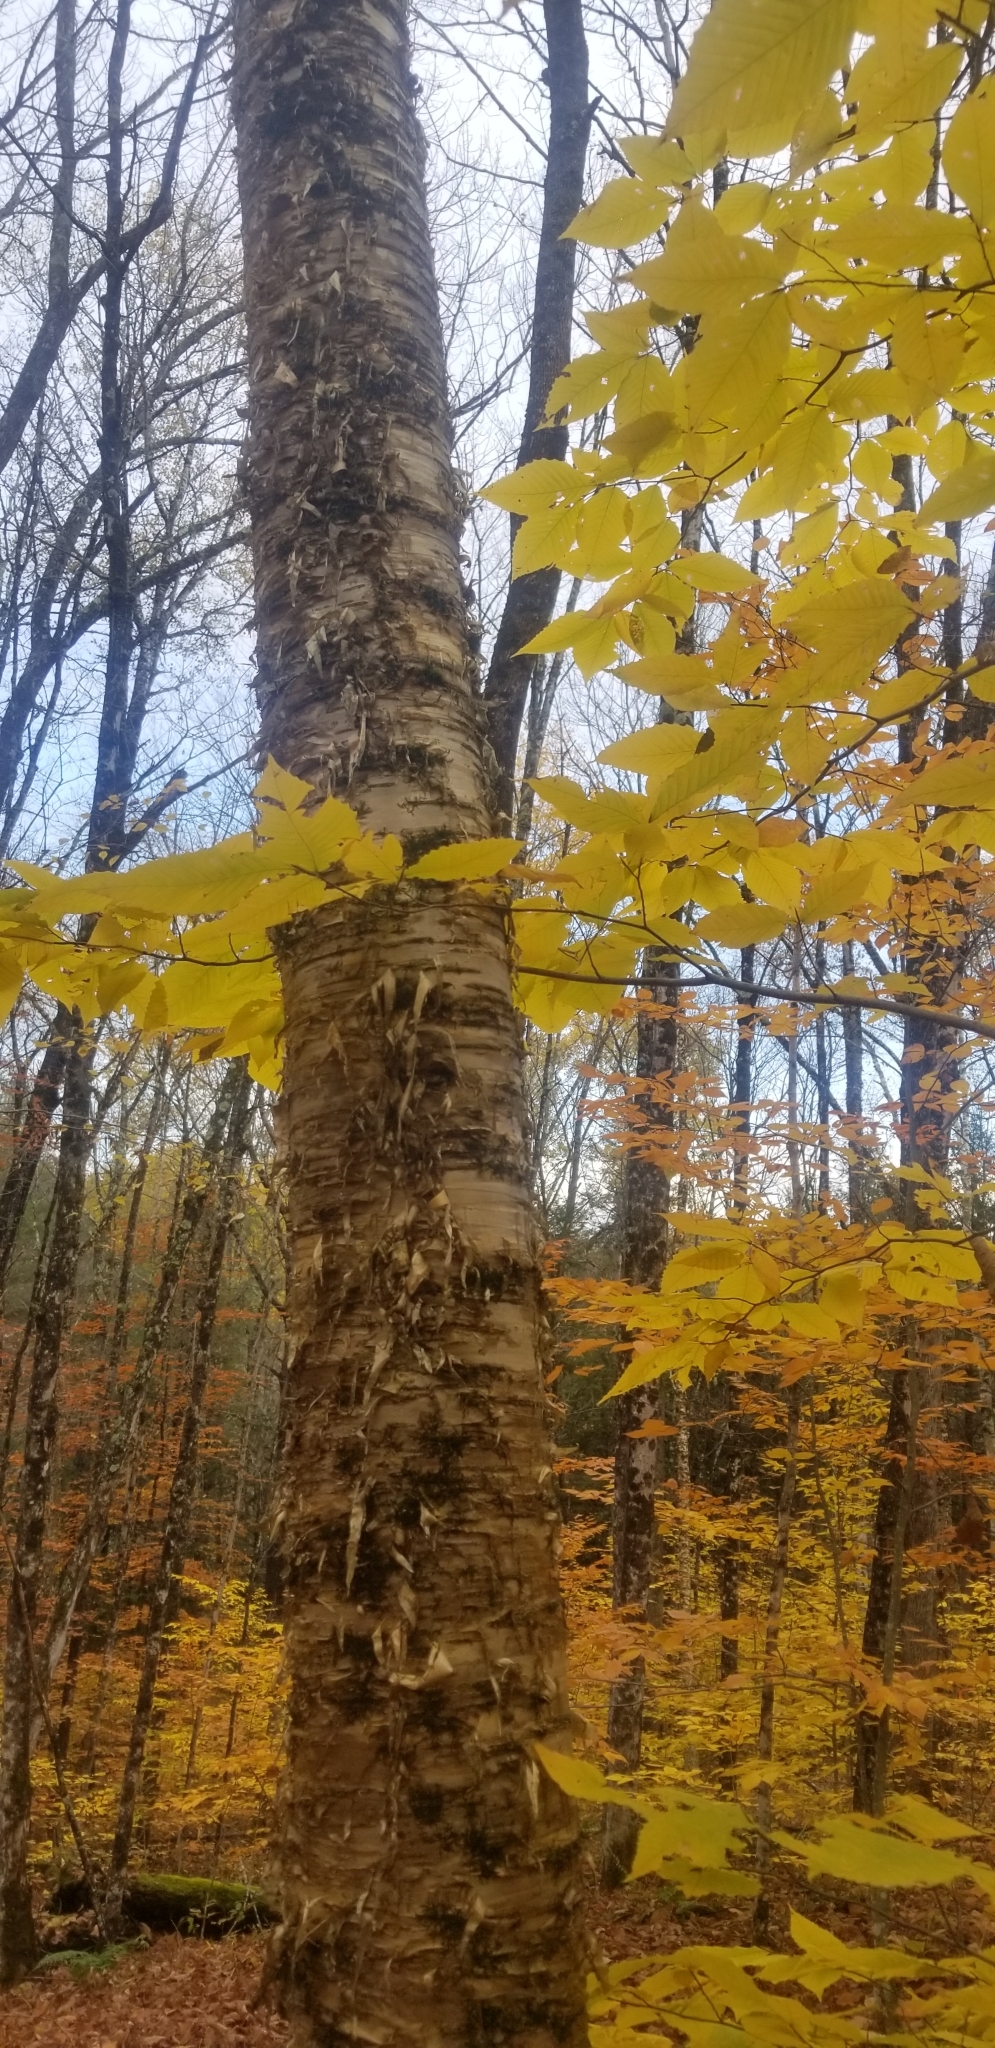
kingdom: Plantae
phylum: Tracheophyta
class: Magnoliopsida
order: Fagales
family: Betulaceae
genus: Betula
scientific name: Betula alleghaniensis
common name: Yellow birch
